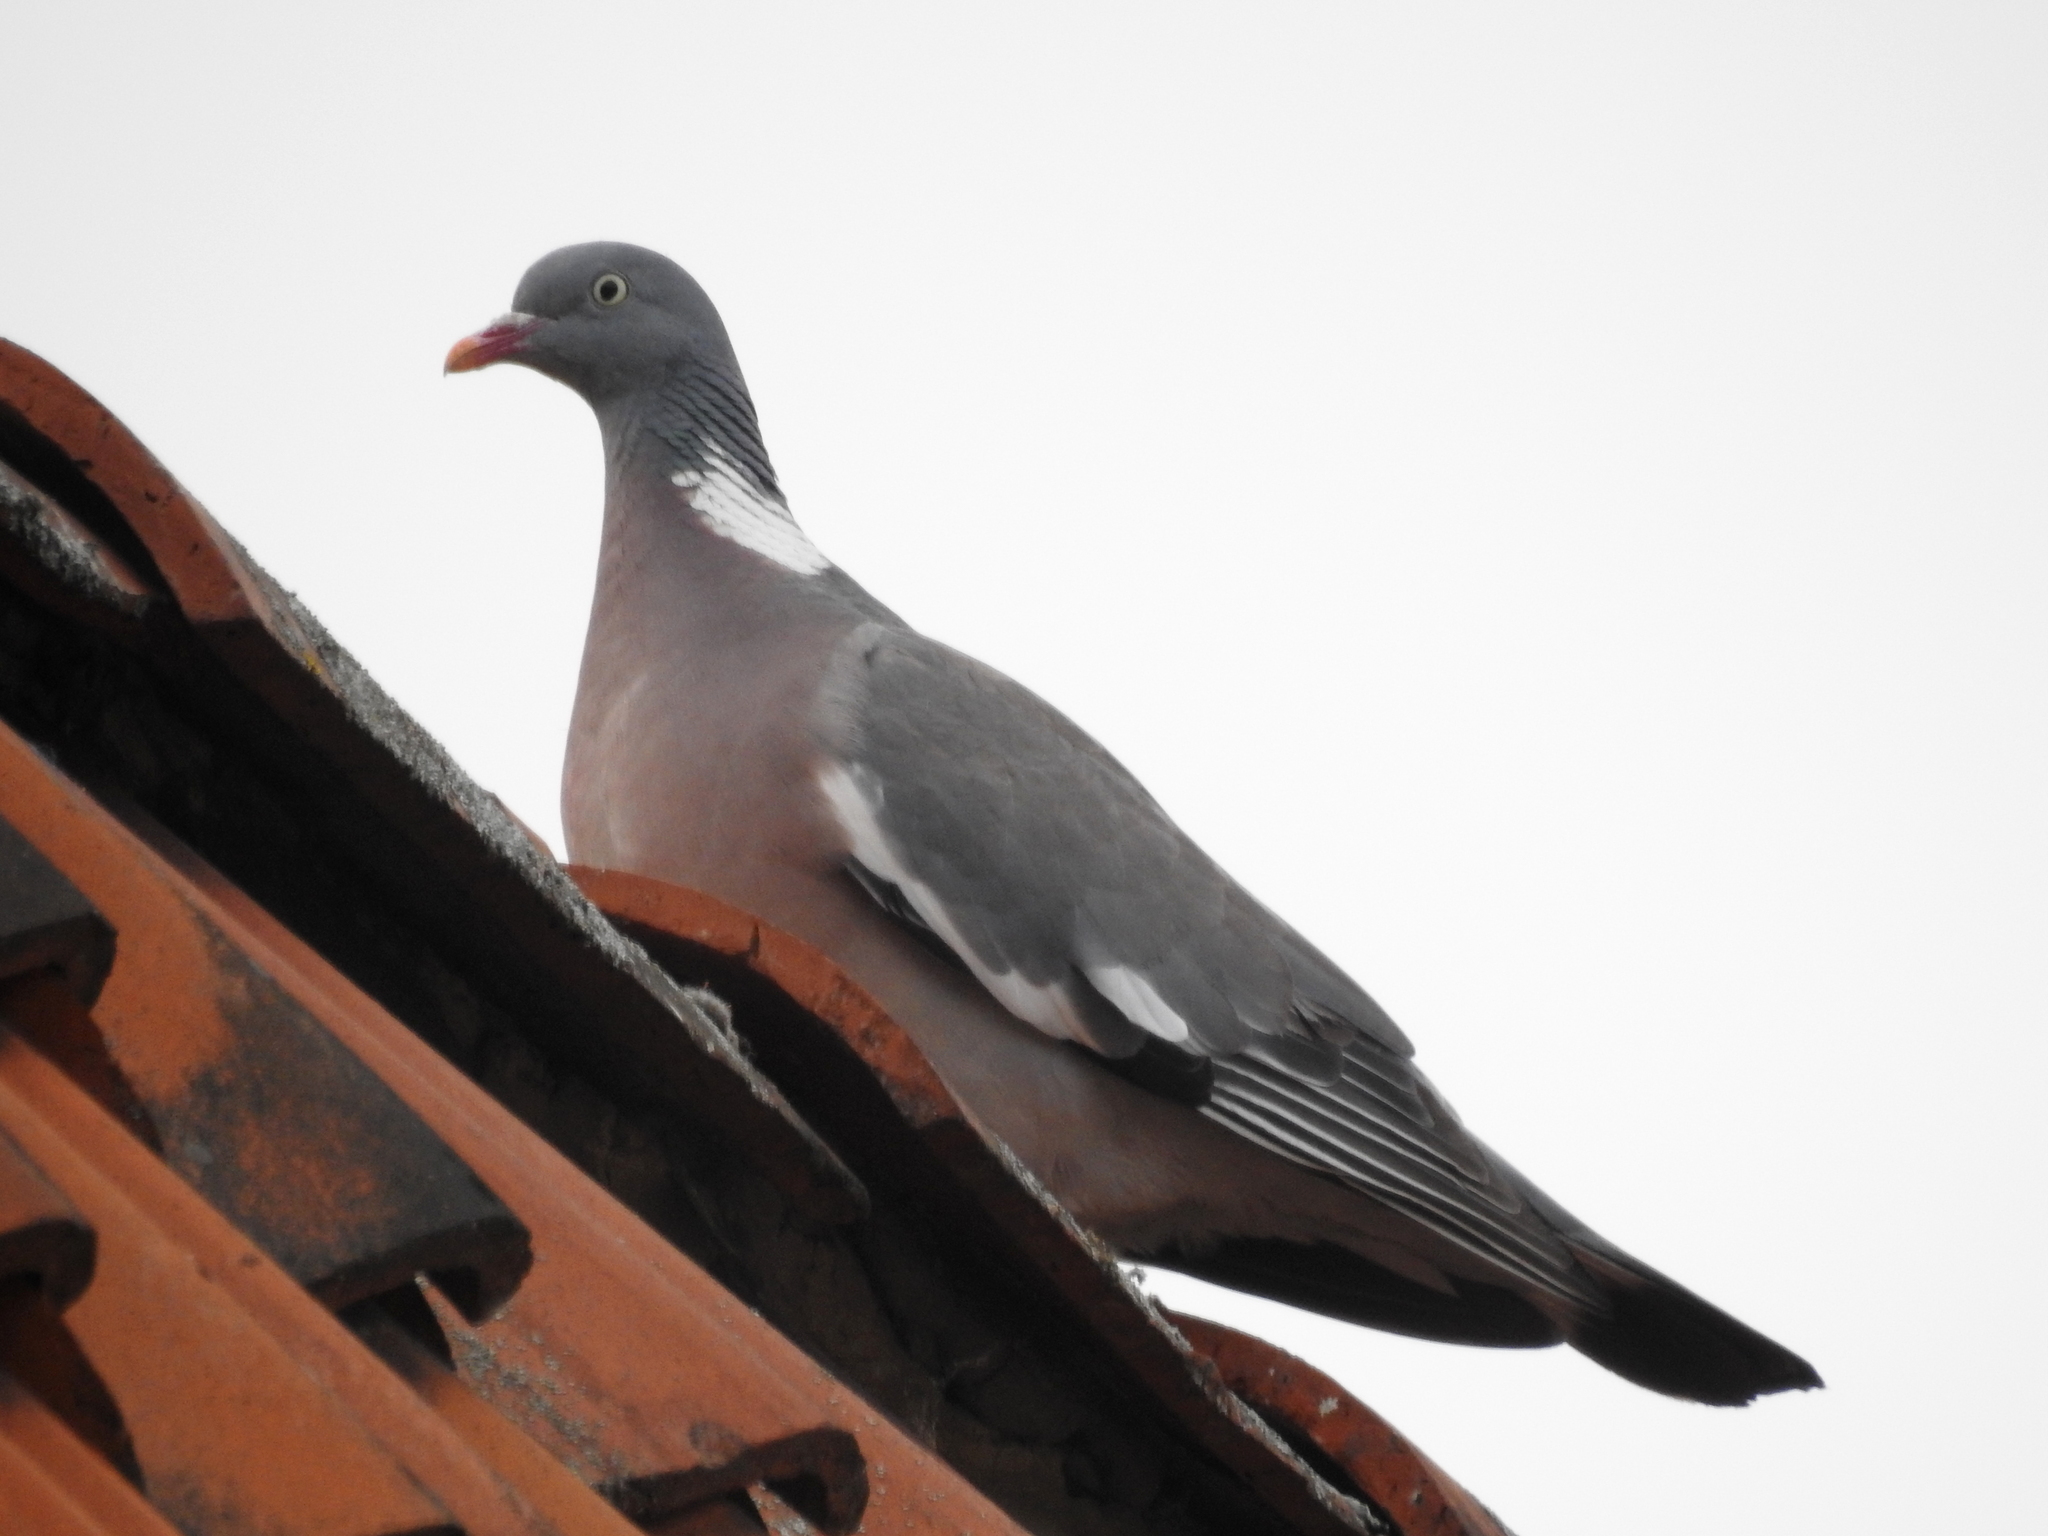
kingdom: Animalia
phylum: Chordata
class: Aves
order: Columbiformes
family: Columbidae
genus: Columba
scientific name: Columba palumbus
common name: Common wood pigeon
